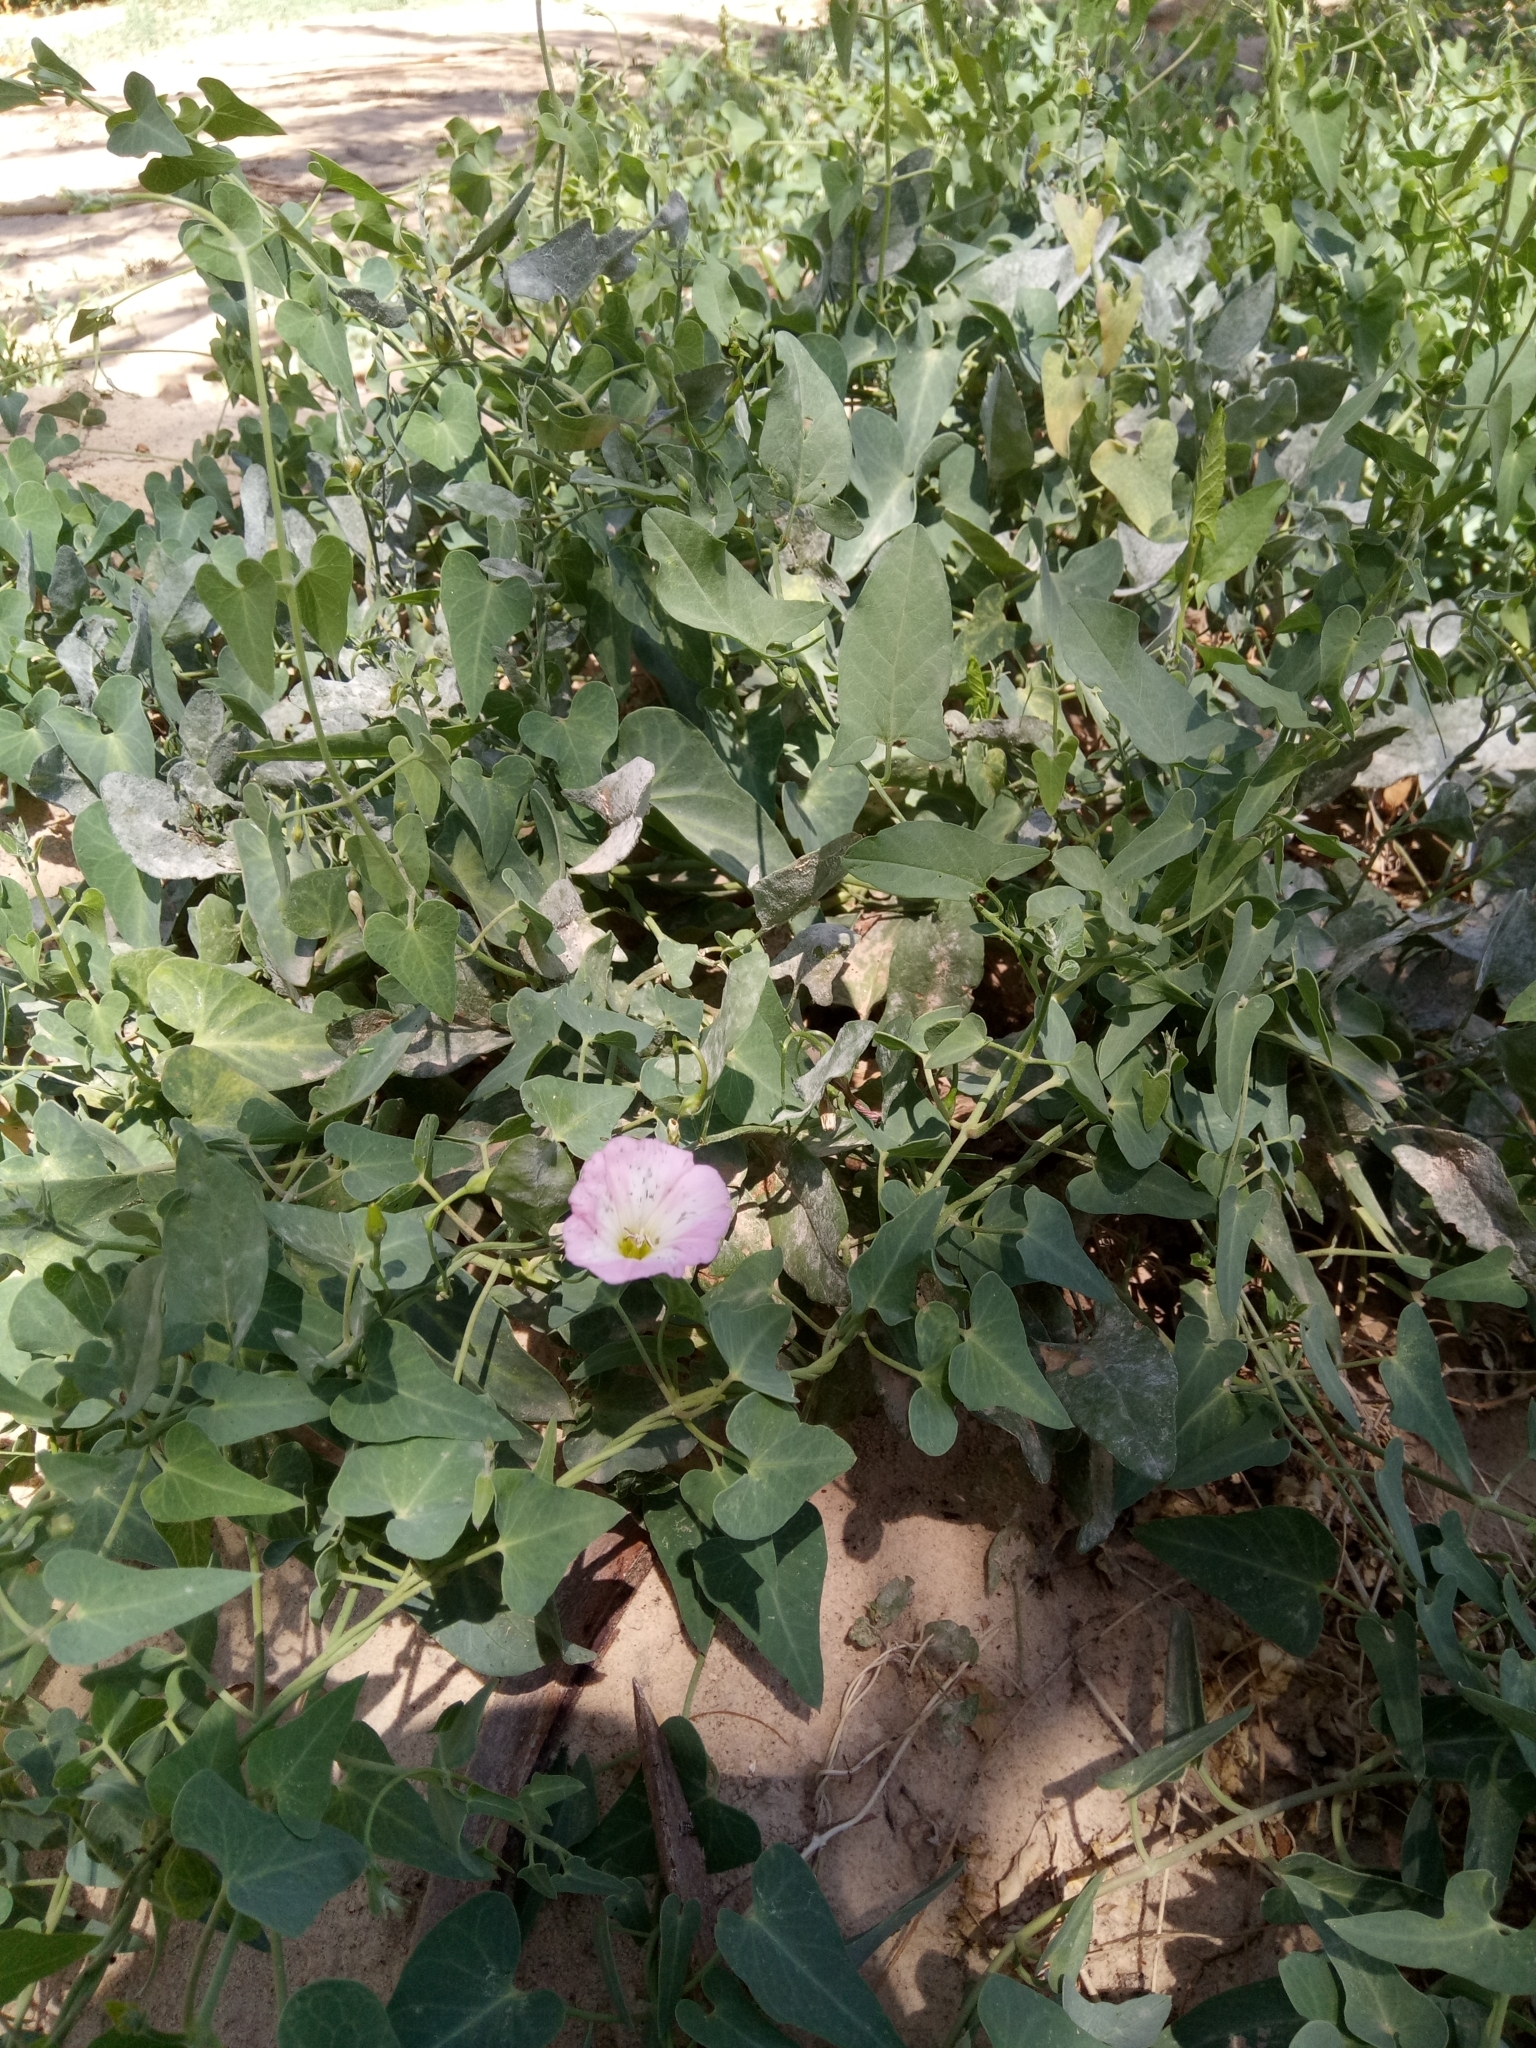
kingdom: Plantae
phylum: Tracheophyta
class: Magnoliopsida
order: Solanales
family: Convolvulaceae
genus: Convolvulus
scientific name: Convolvulus arvensis
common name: Field bindweed
